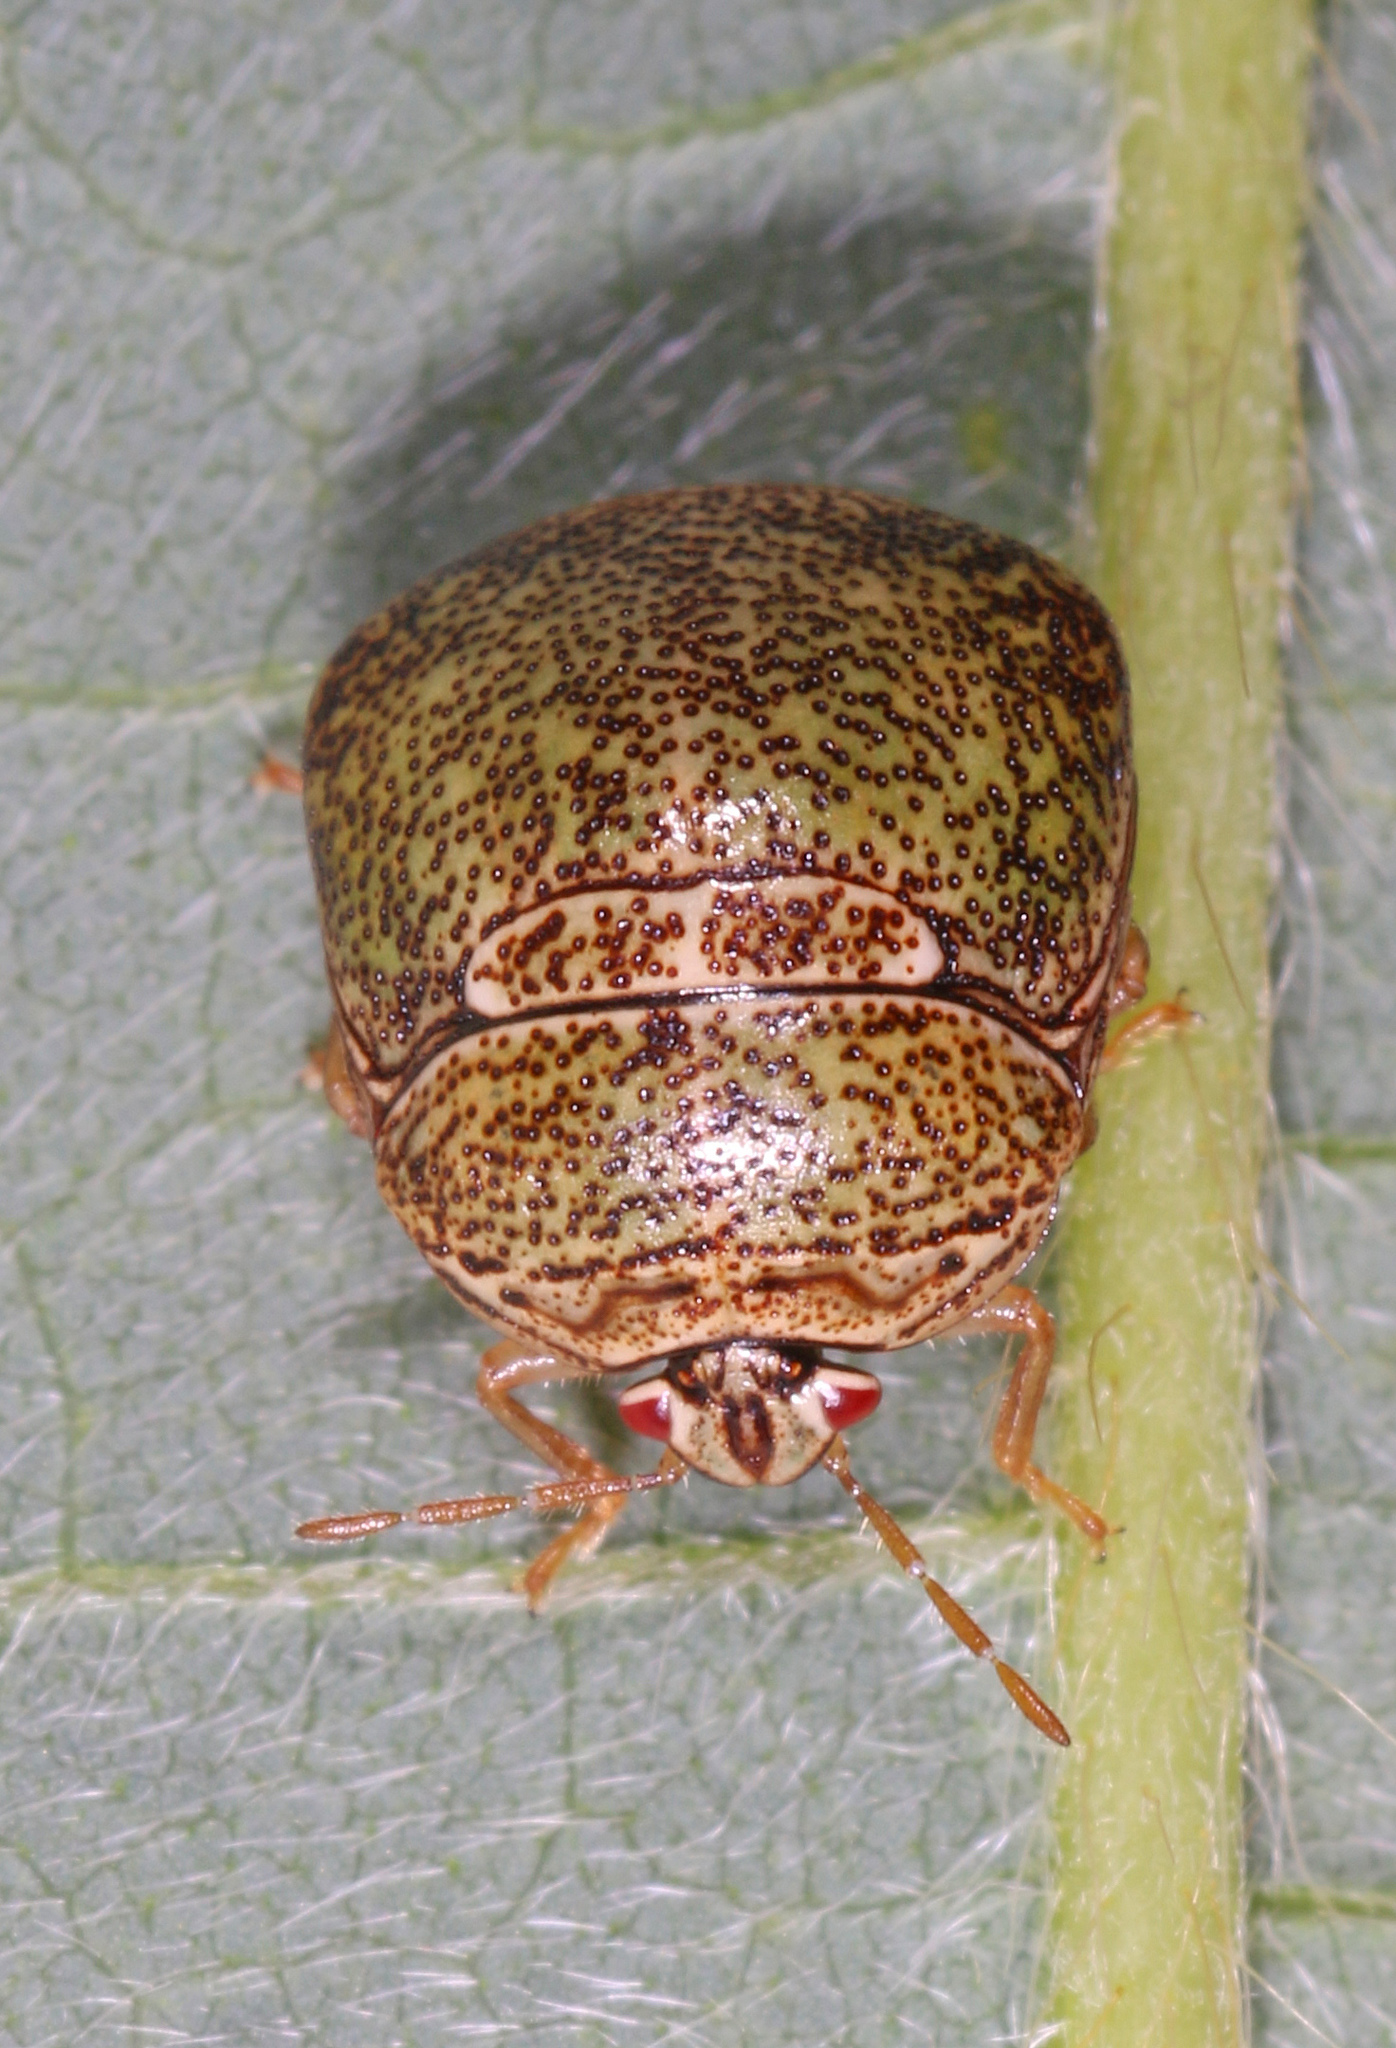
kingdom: Animalia
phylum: Arthropoda
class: Insecta
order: Hemiptera
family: Plataspidae
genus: Megacopta
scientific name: Megacopta cribraria
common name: Bean plataspid
